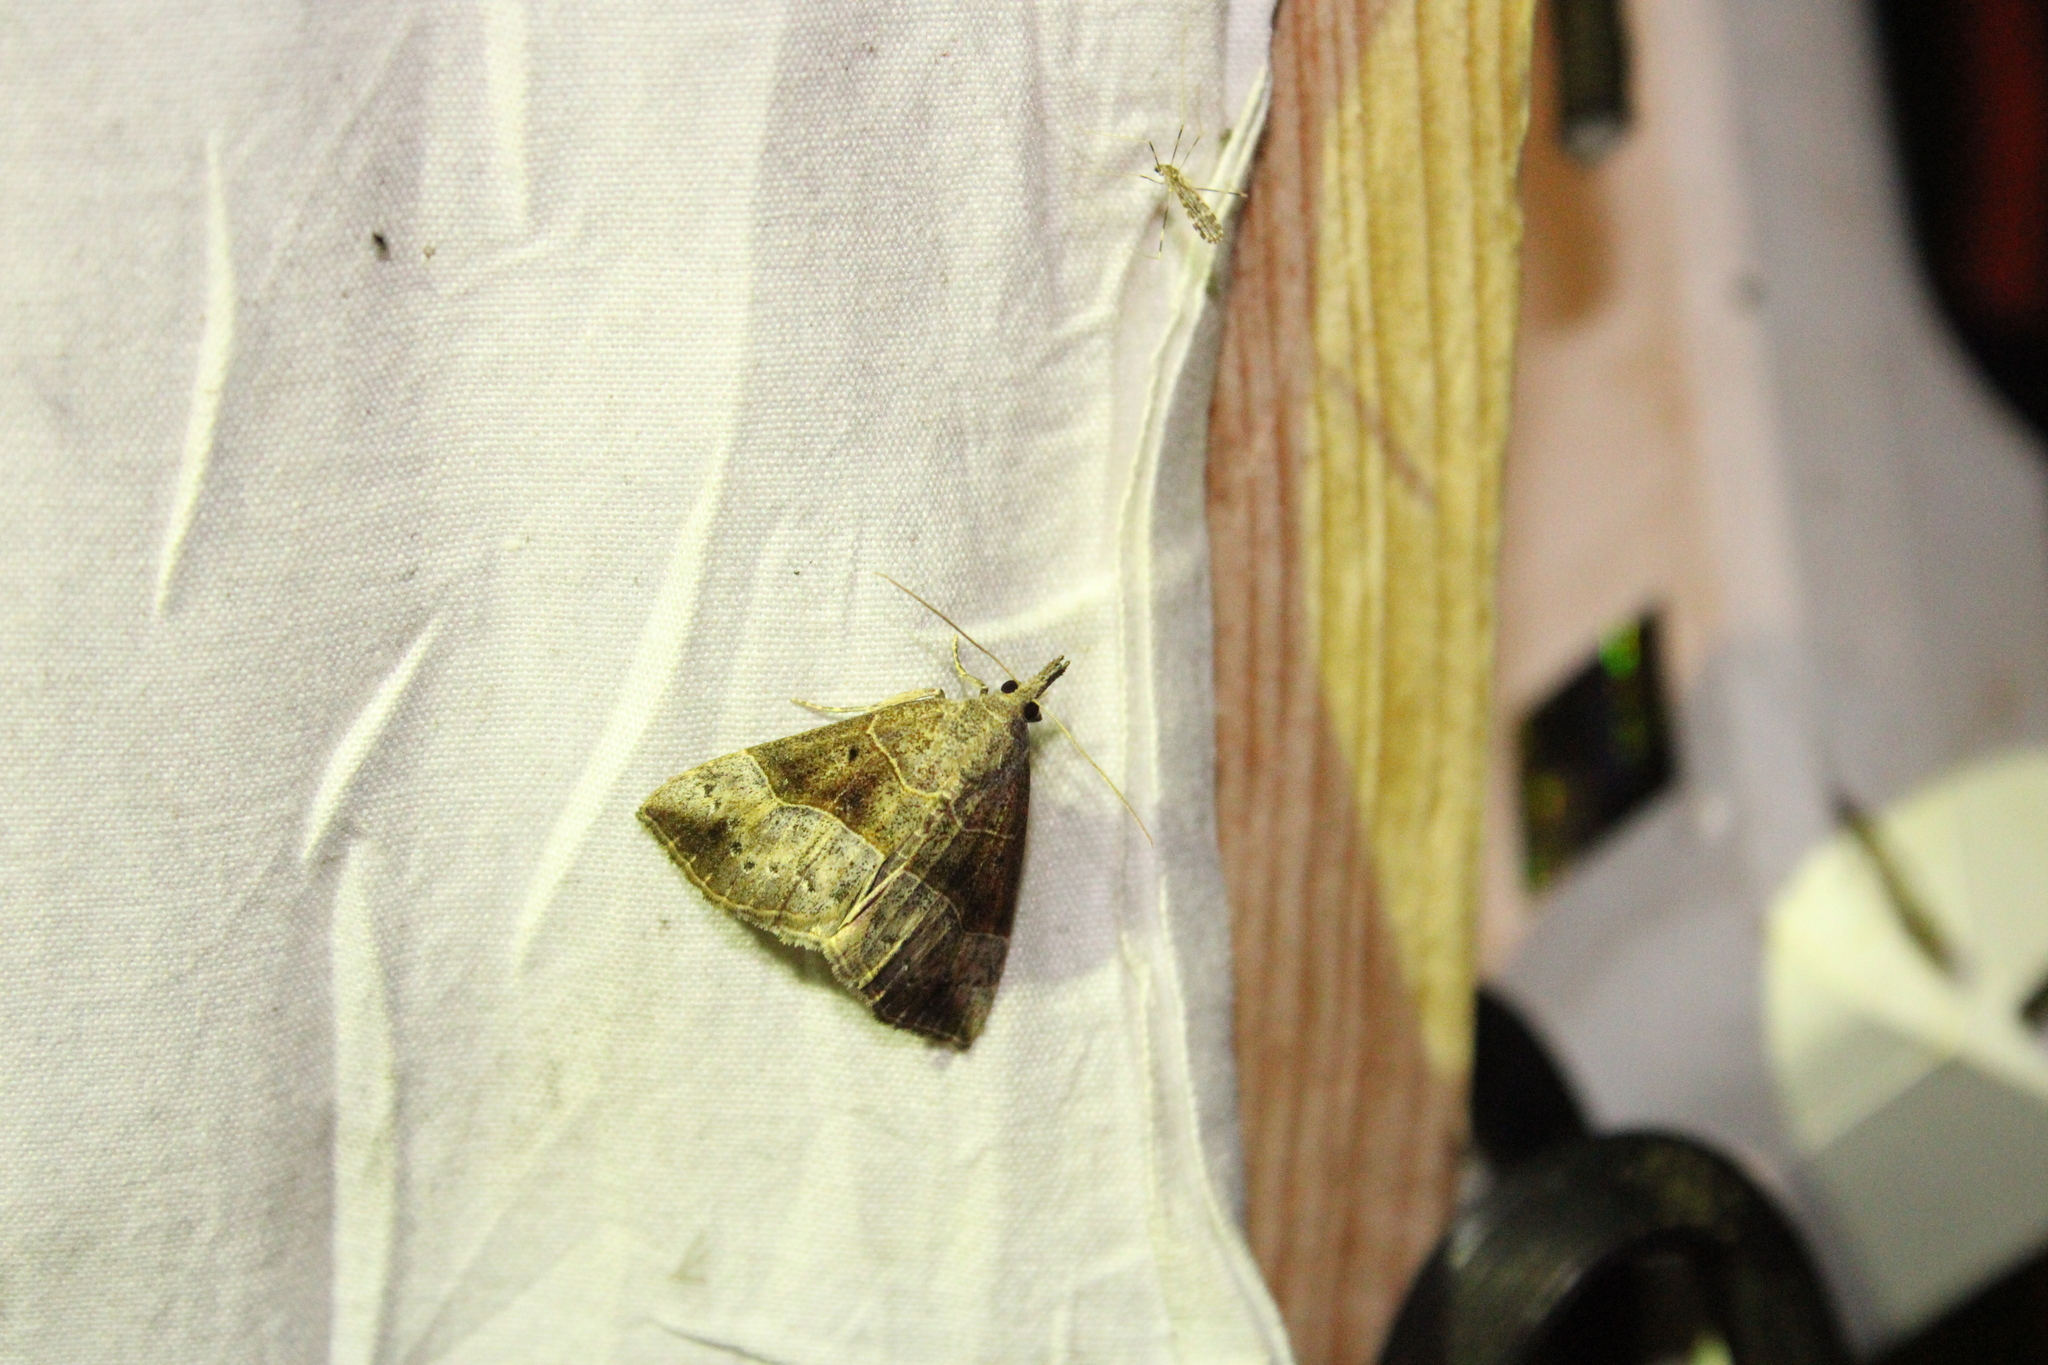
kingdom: Animalia
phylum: Arthropoda
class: Insecta
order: Lepidoptera
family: Erebidae
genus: Hypena
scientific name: Hypena deceptalis
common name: Deceptive snout
